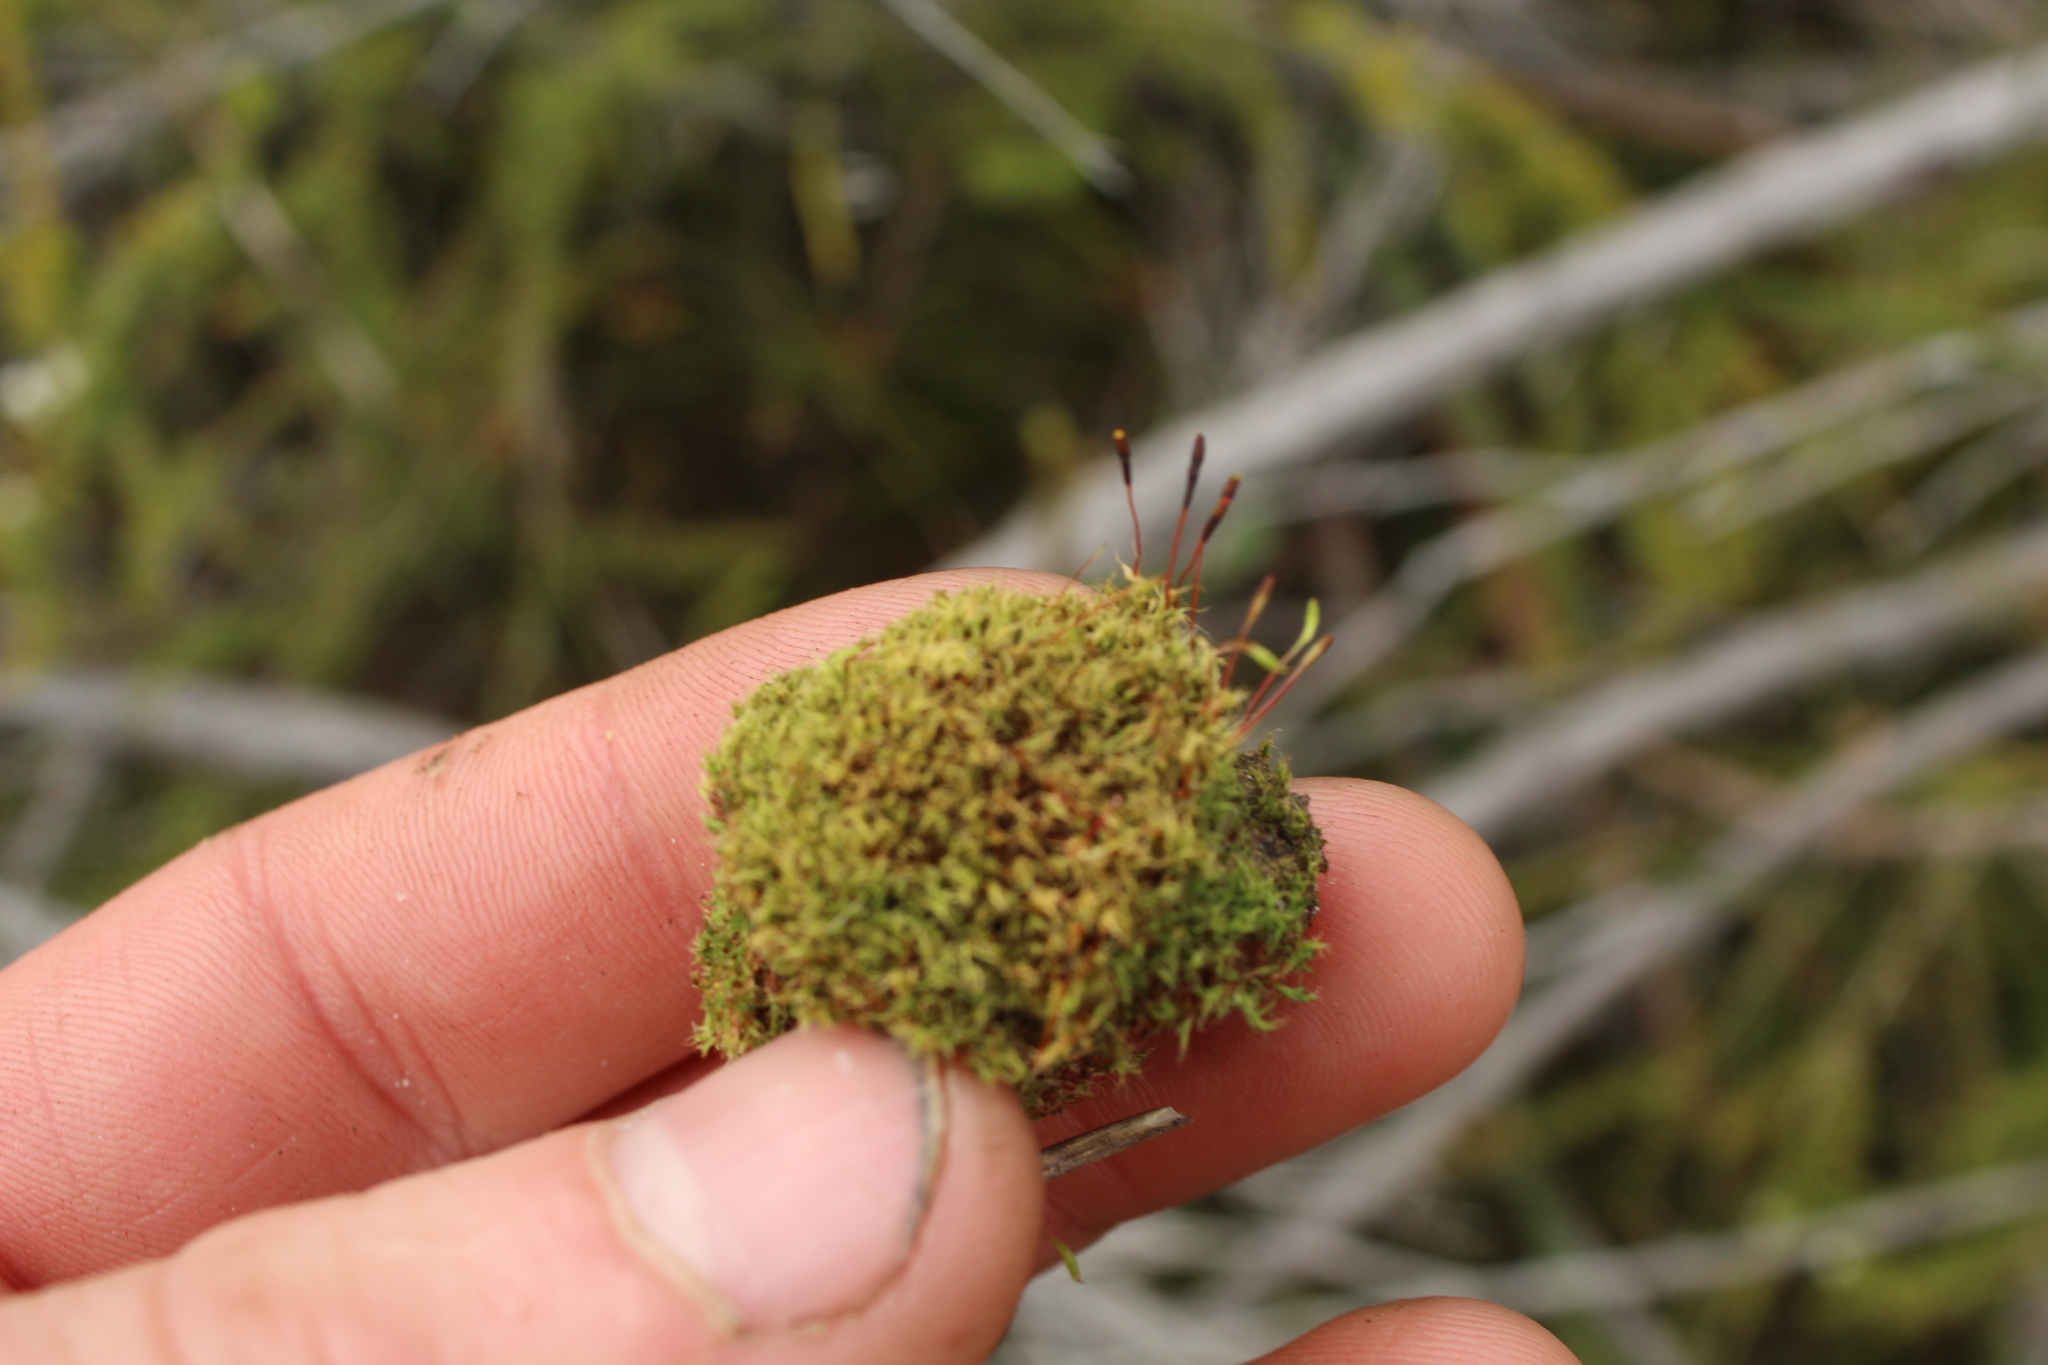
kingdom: Plantae
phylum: Bryophyta
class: Bryopsida
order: Splachnales
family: Splachnaceae
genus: Tayloria
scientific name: Tayloria octoblephara
